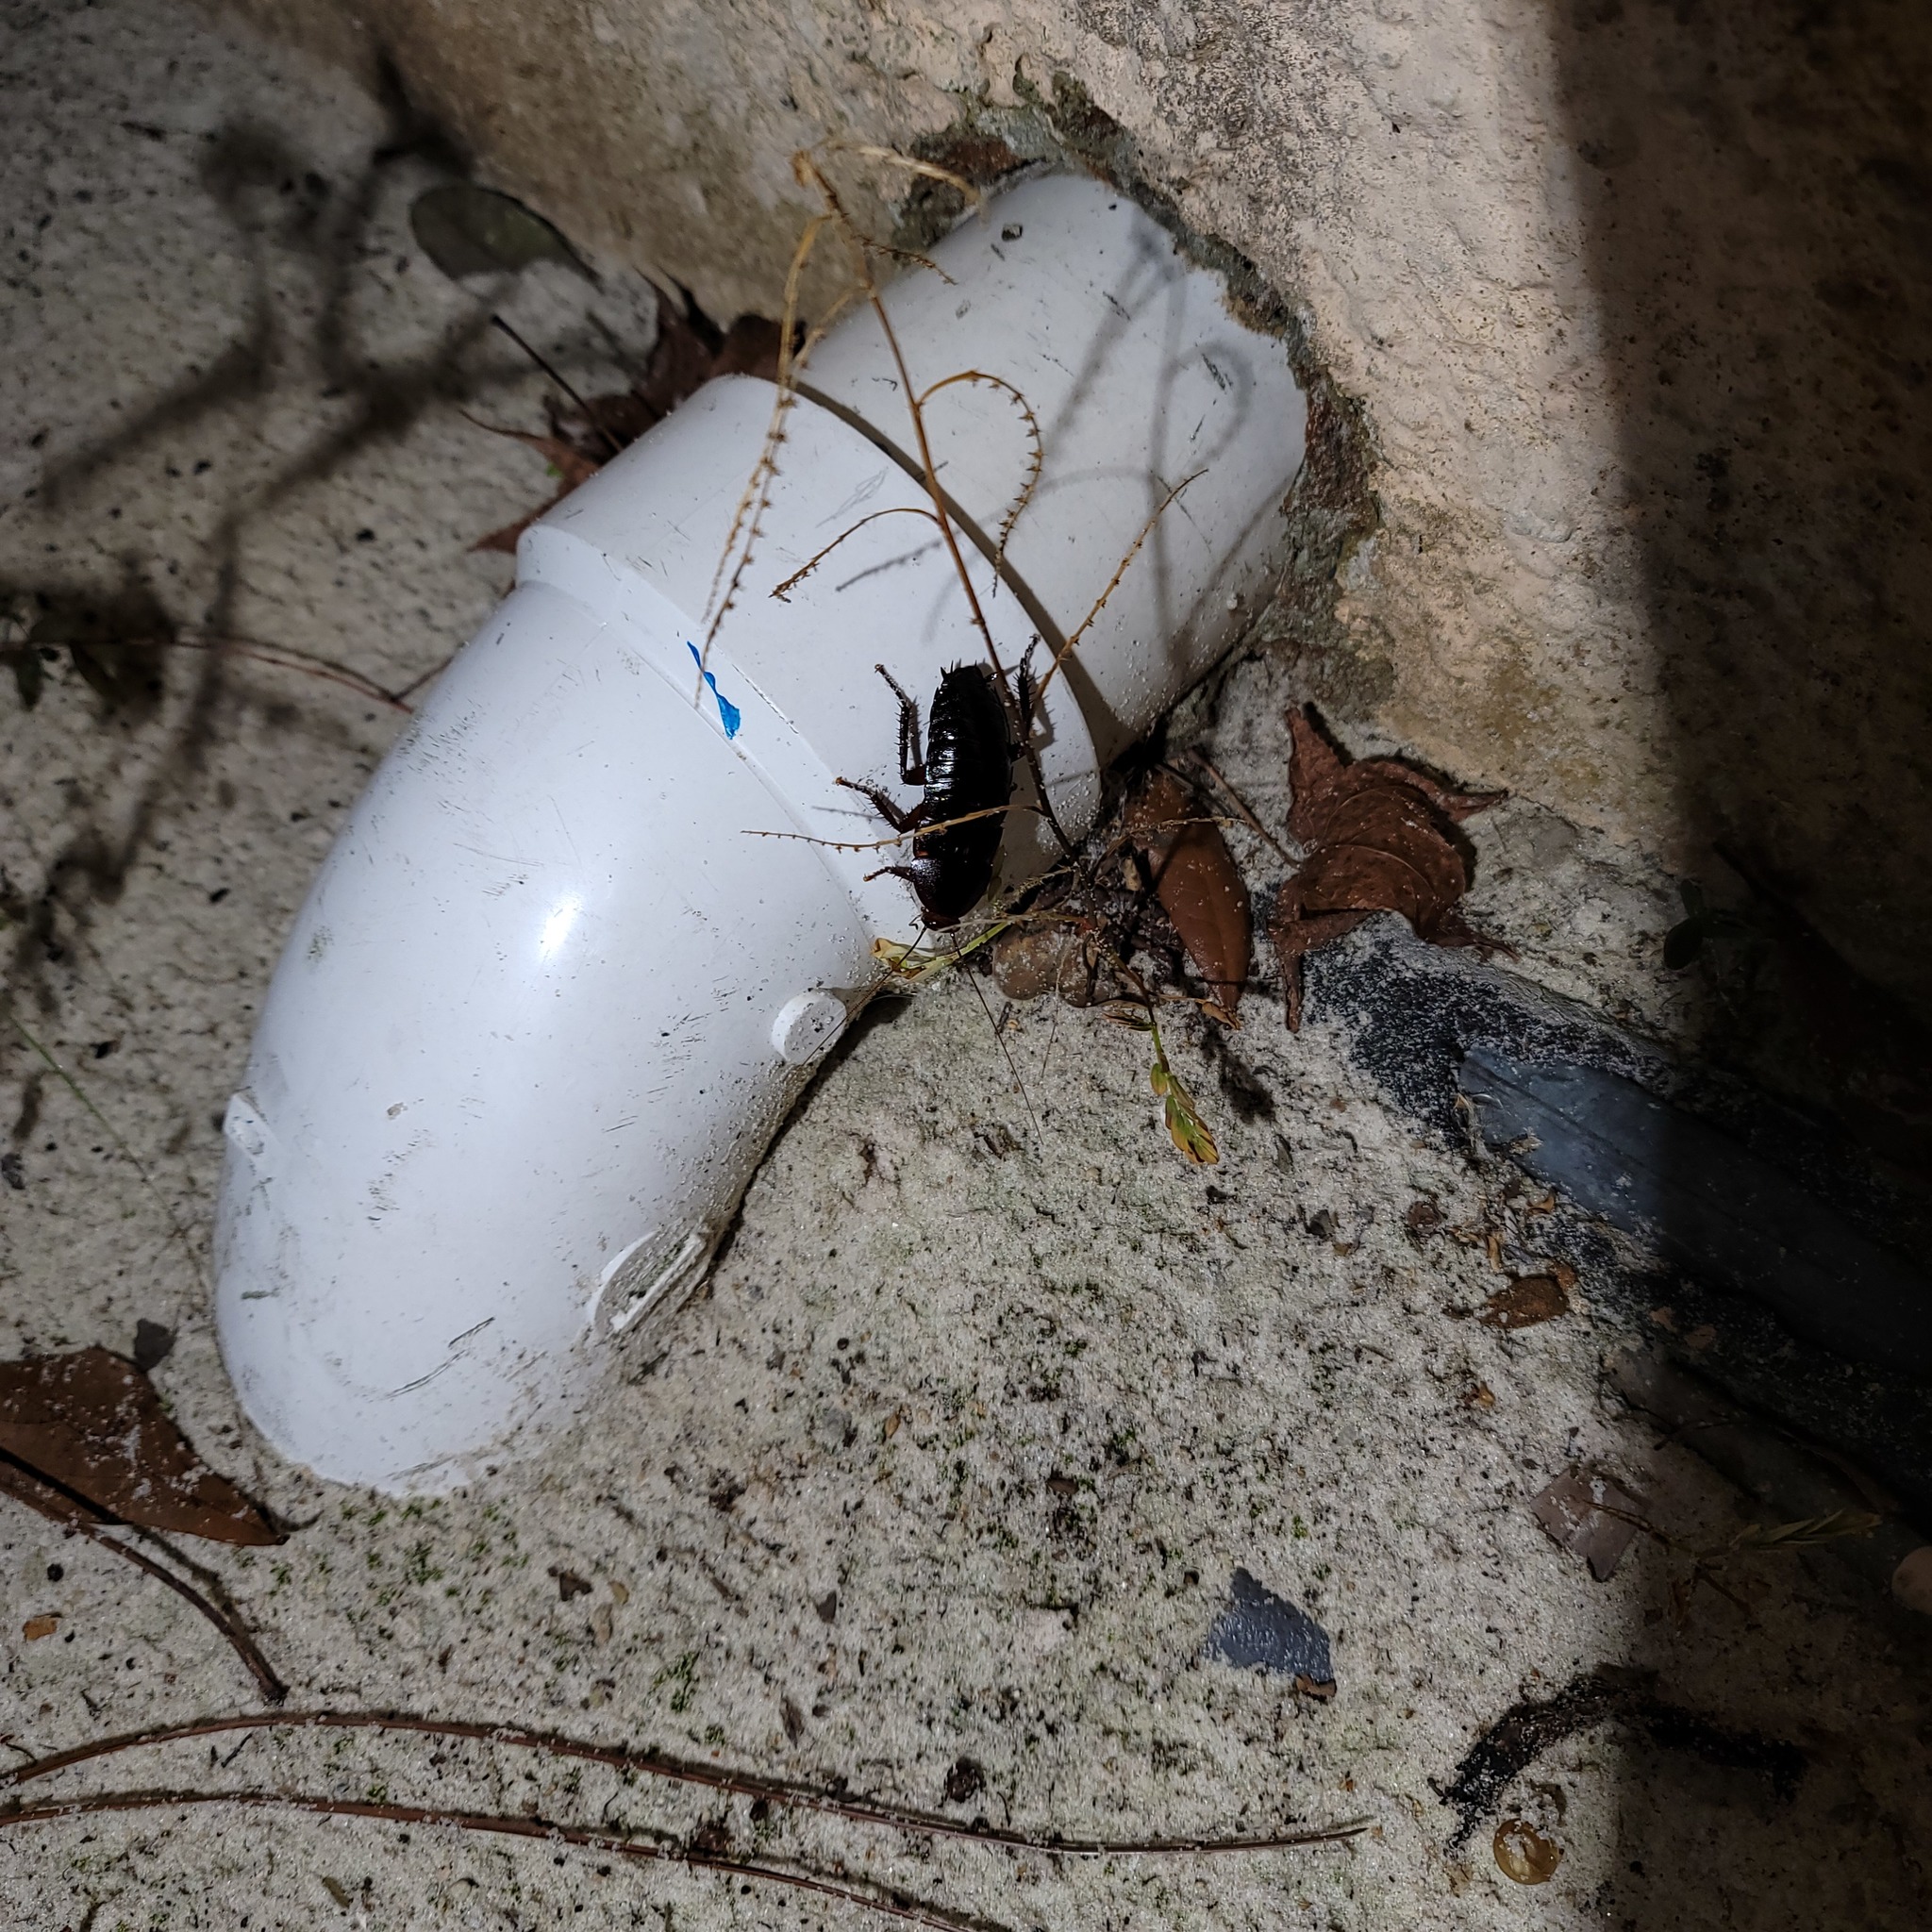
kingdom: Animalia
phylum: Arthropoda
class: Insecta
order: Blattodea
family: Blattidae
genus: Eurycotis
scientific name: Eurycotis floridana
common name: Florida cockroach
